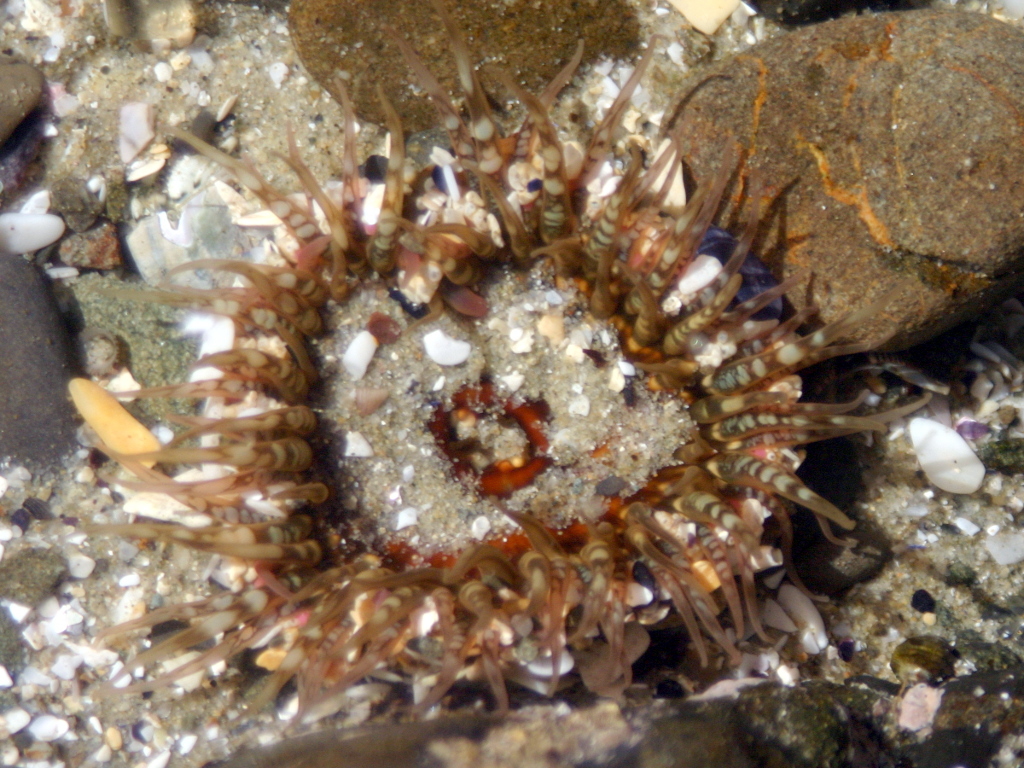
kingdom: Animalia
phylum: Cnidaria
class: Anthozoa
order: Actiniaria
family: Actiniidae
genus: Oulactis
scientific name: Oulactis muscosa
